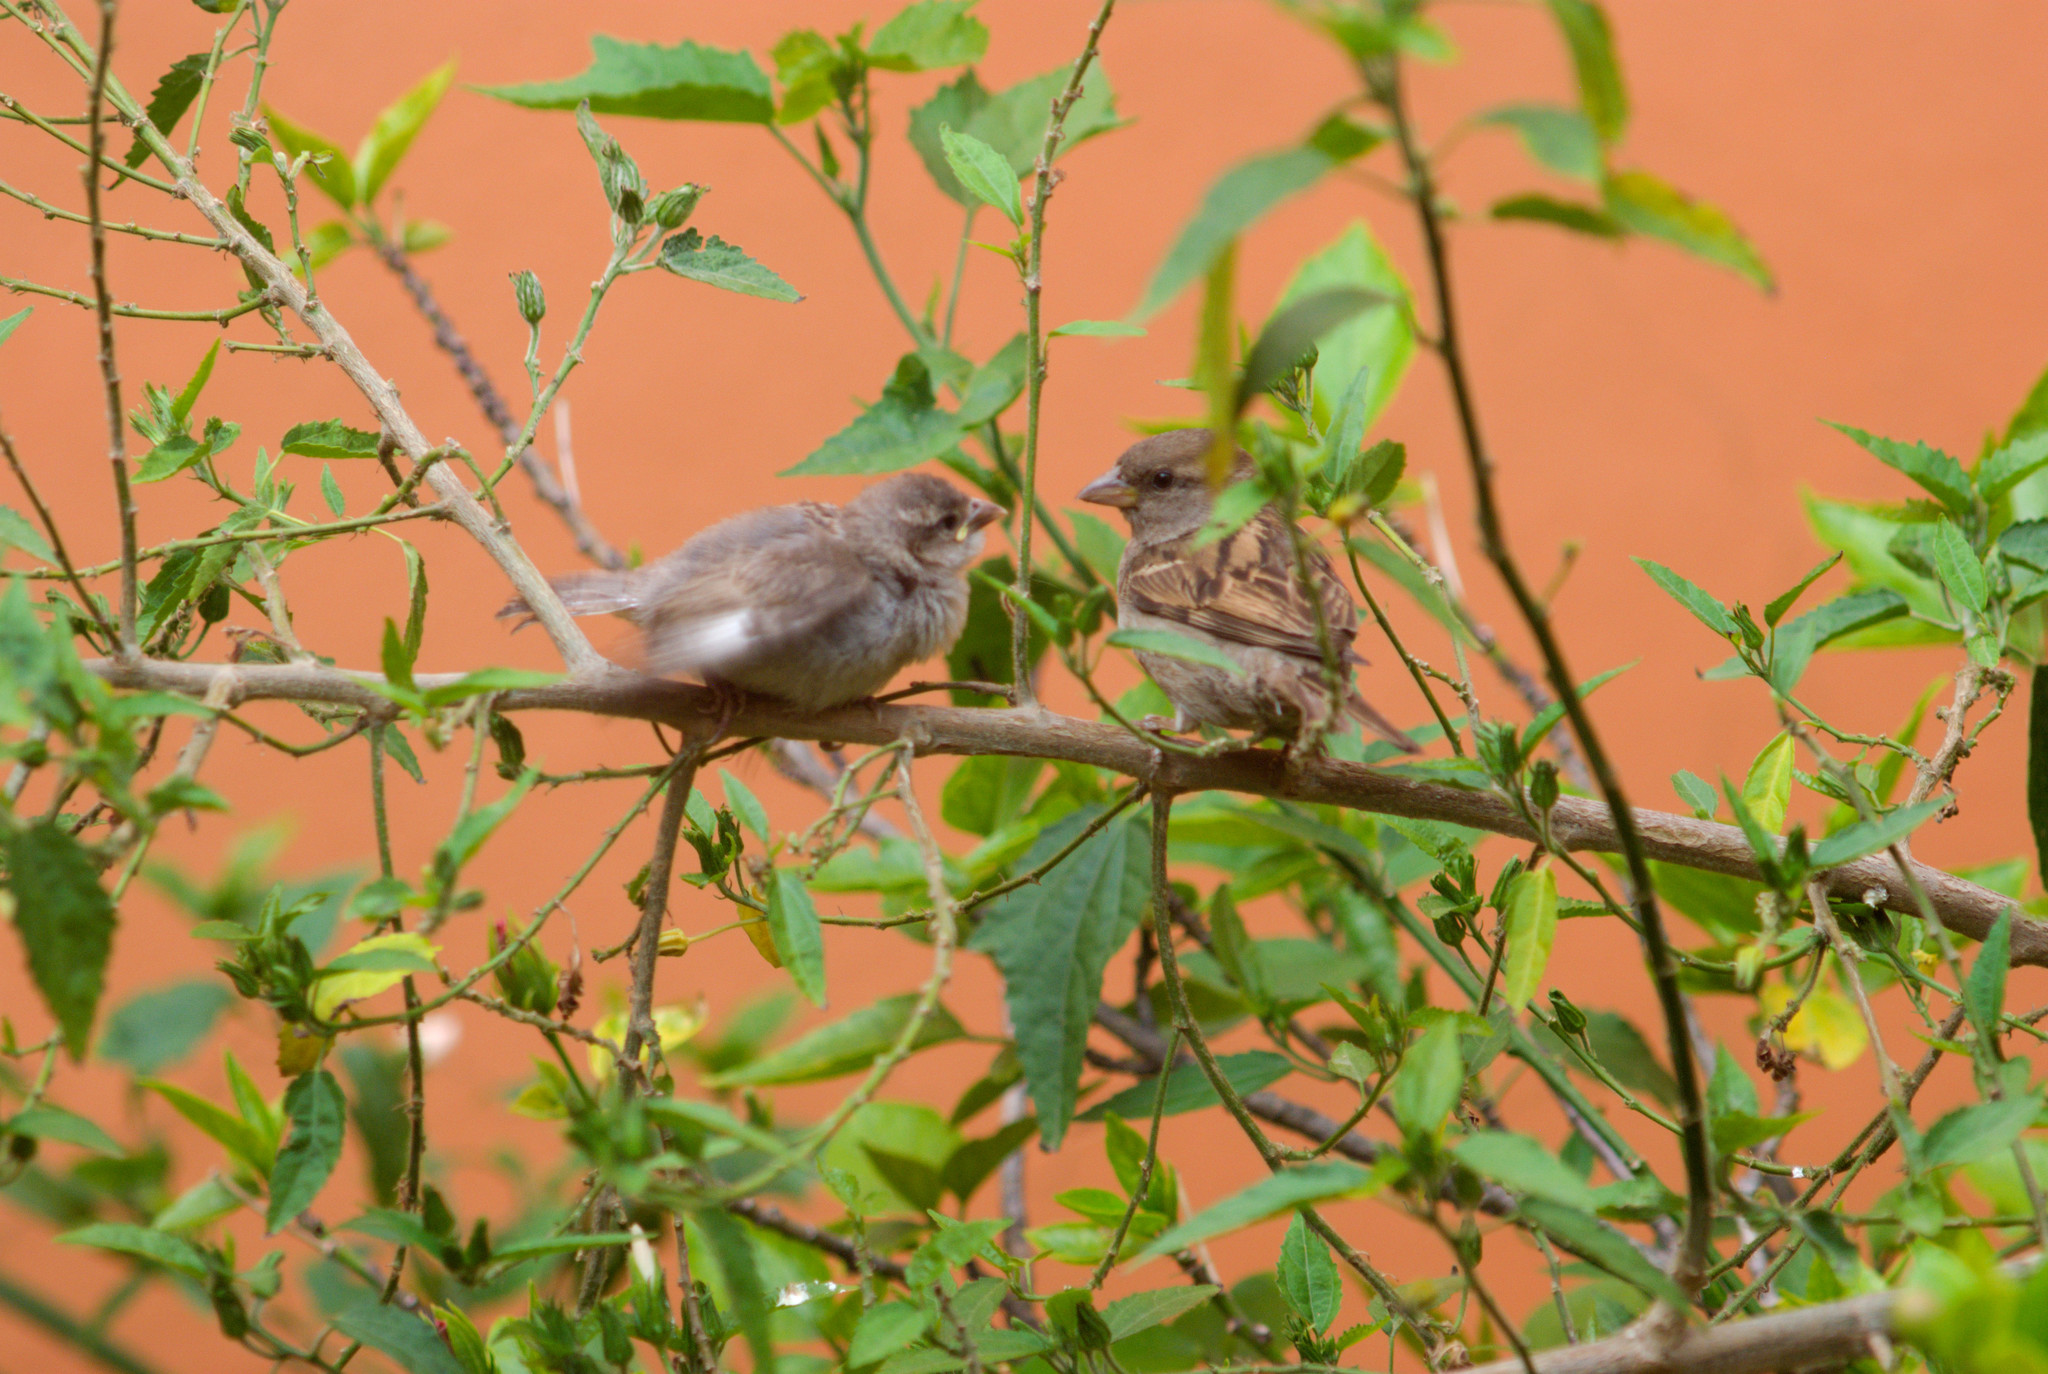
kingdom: Animalia
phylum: Chordata
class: Aves
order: Passeriformes
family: Passeridae
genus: Passer
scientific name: Passer domesticus
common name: House sparrow
